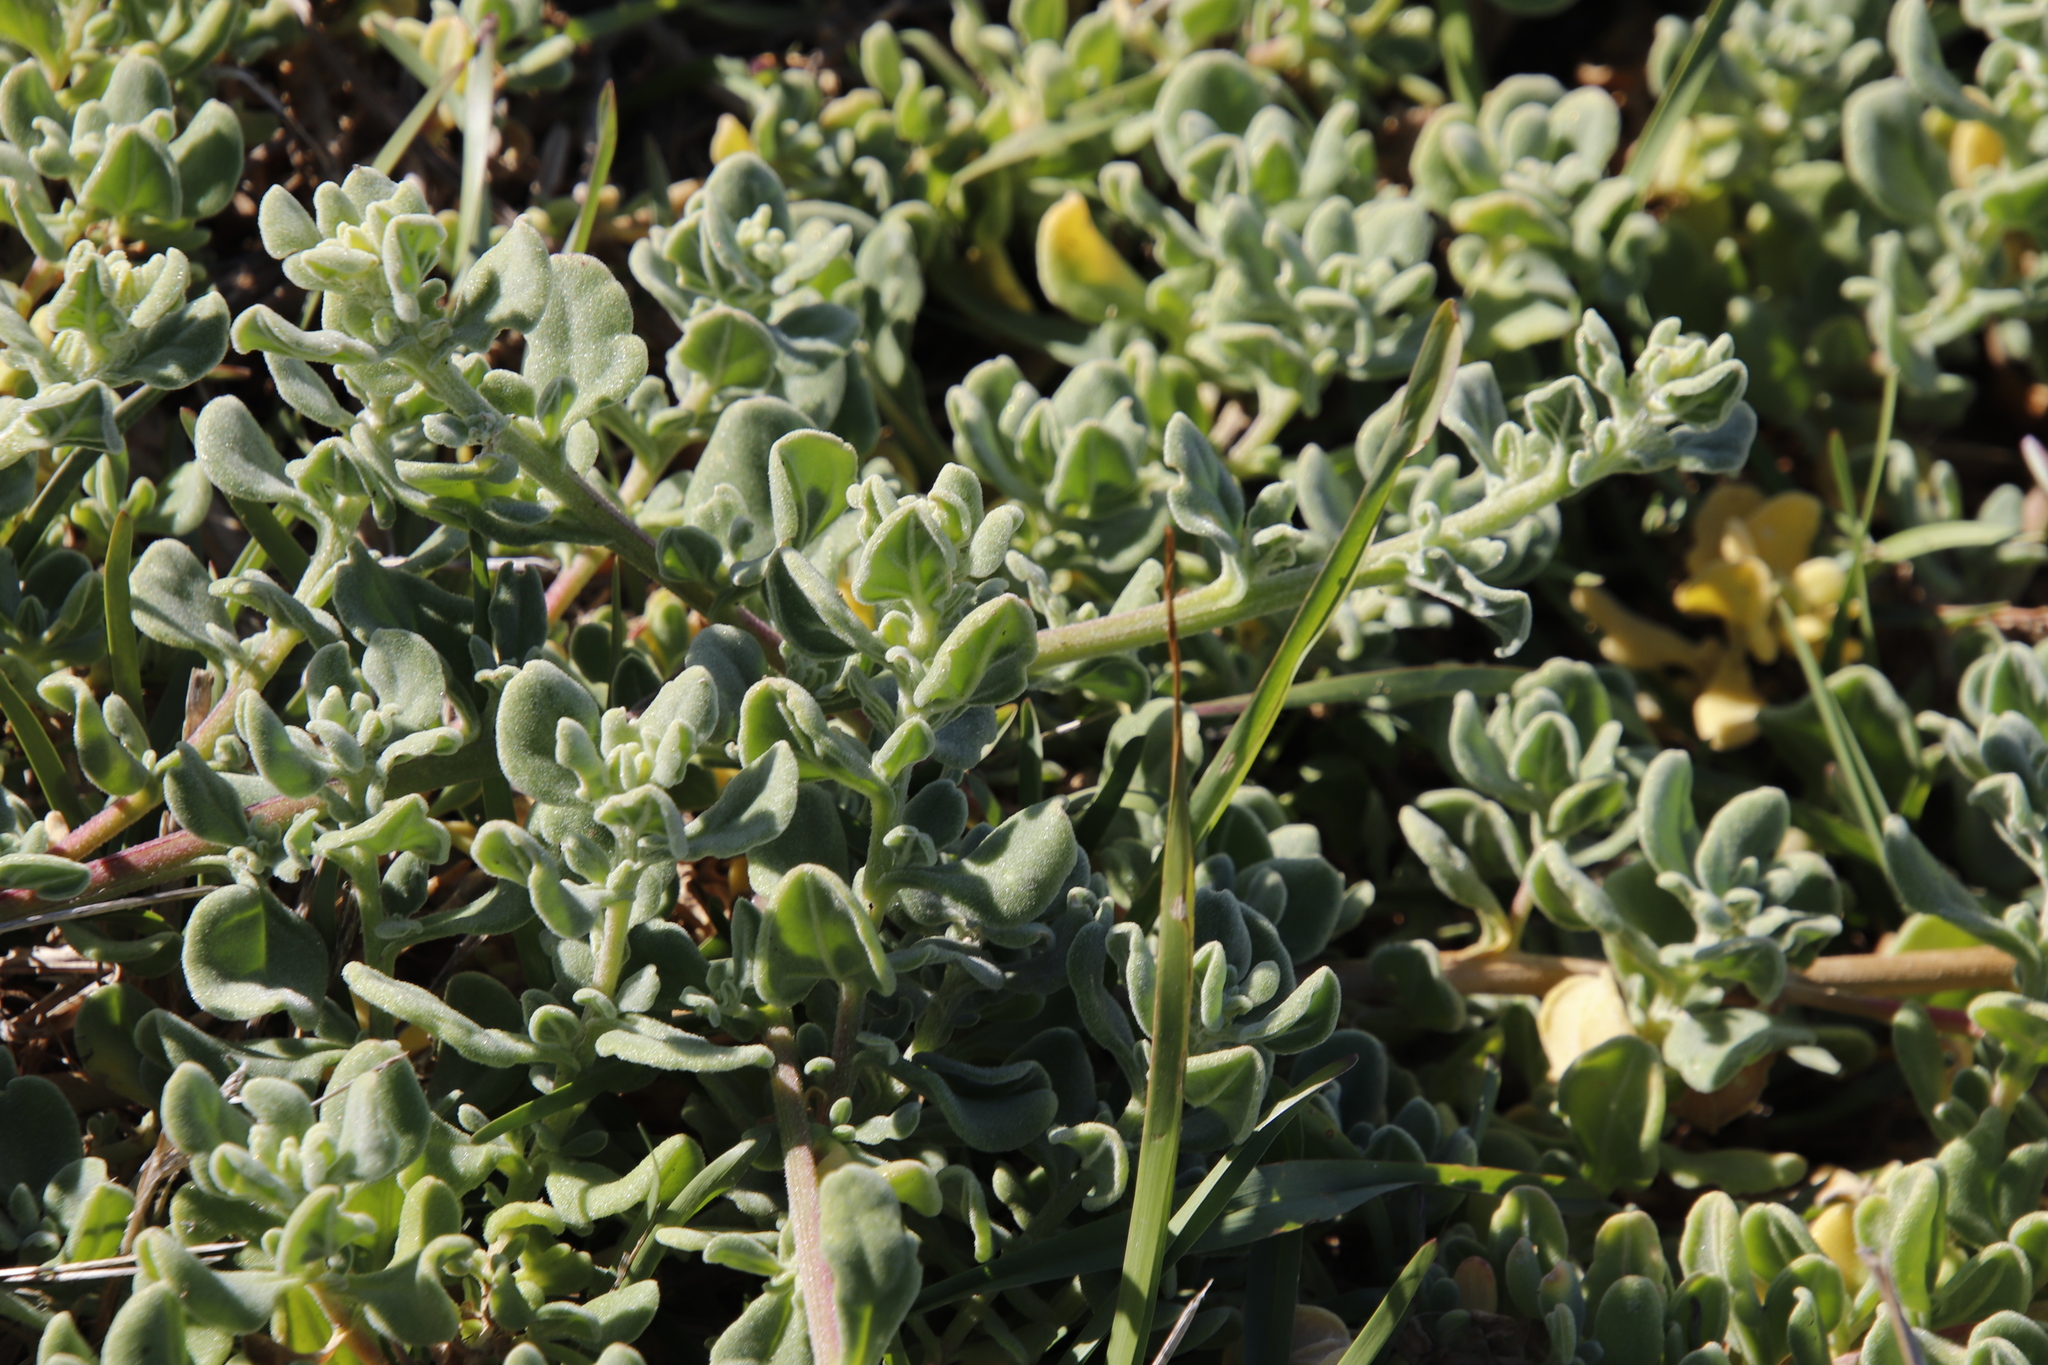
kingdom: Plantae
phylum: Tracheophyta
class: Magnoliopsida
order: Caryophyllales
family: Aizoaceae
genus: Tetragonia
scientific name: Tetragonia decumbens
